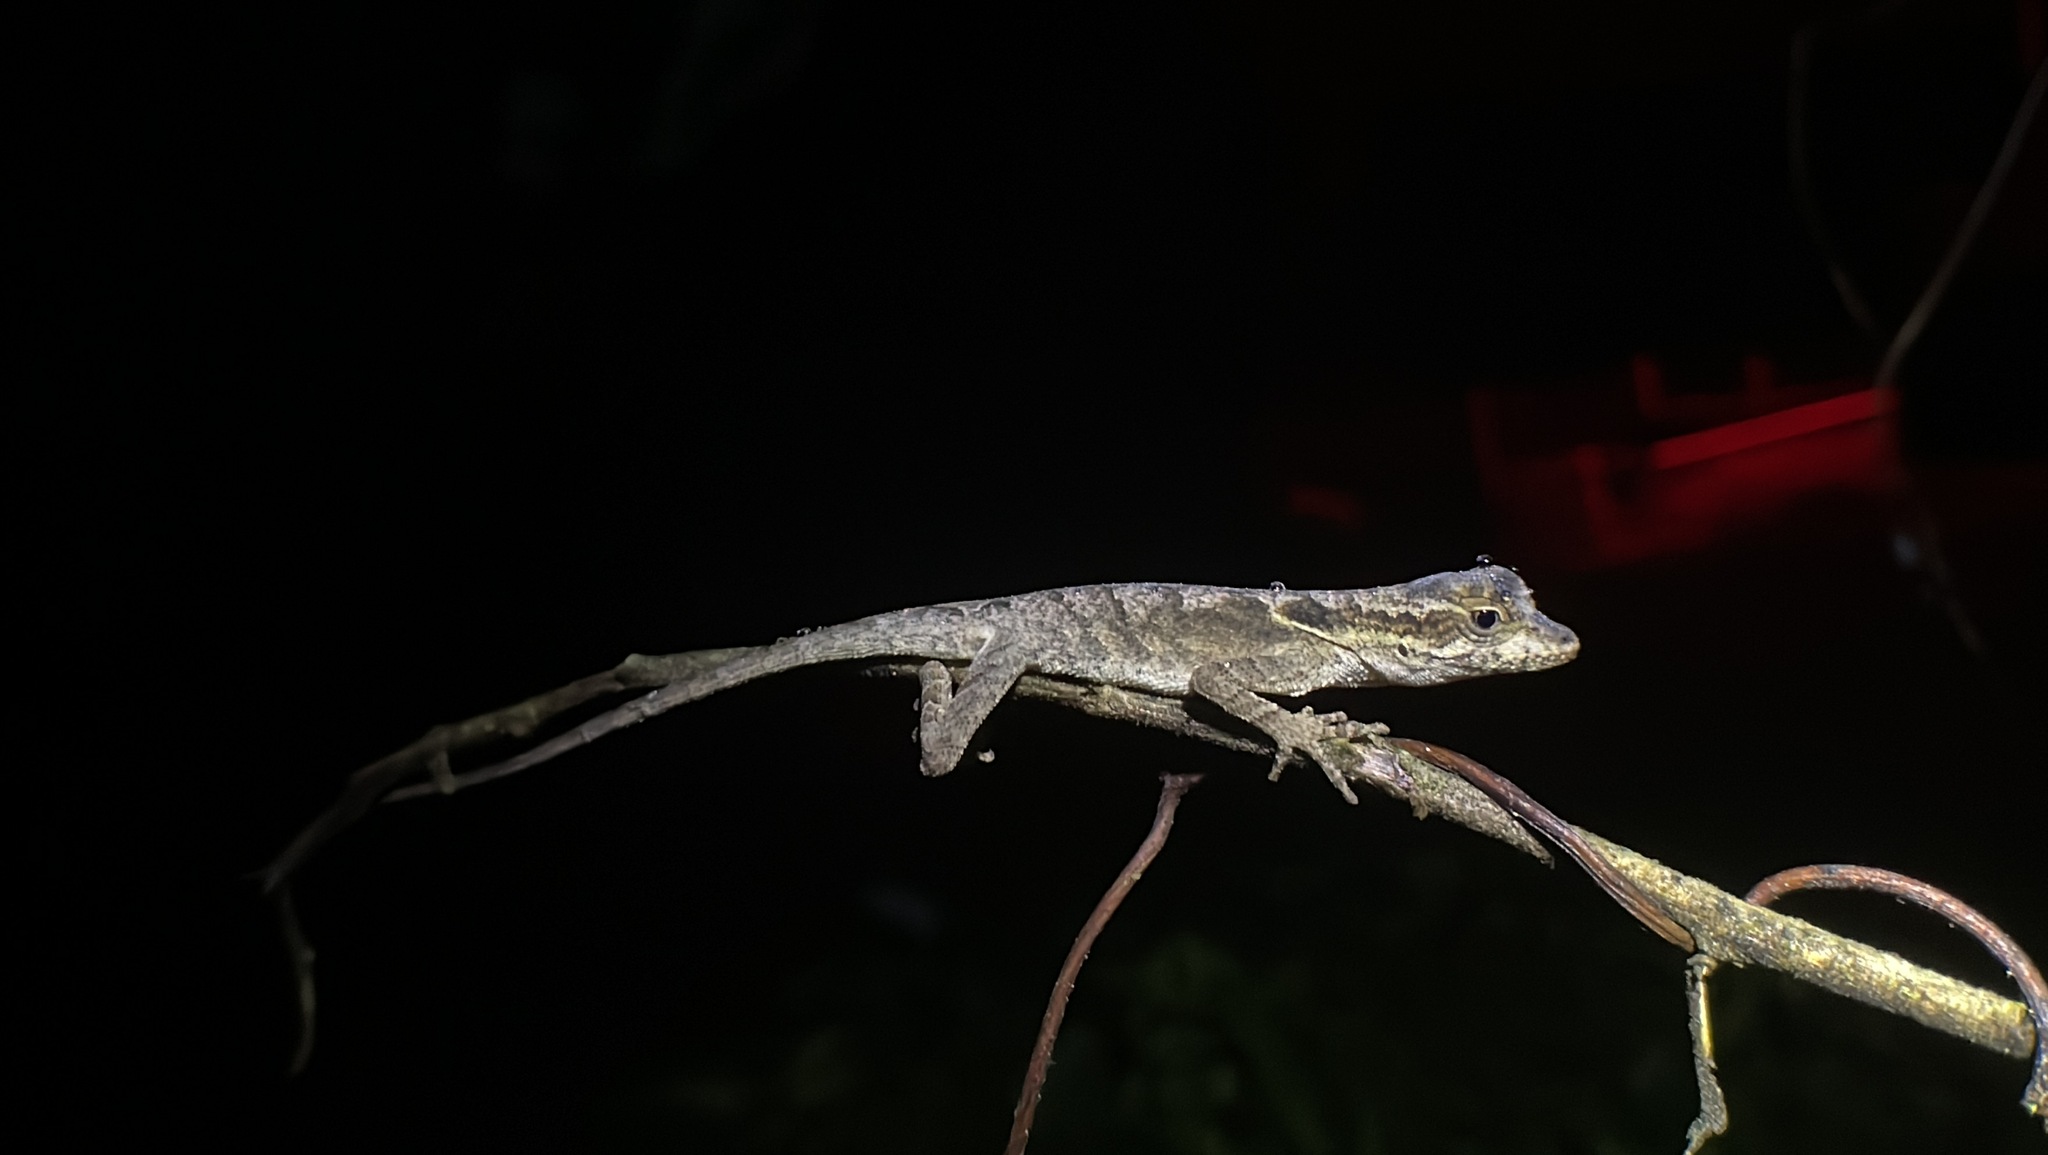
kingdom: Animalia
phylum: Chordata
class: Squamata
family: Dactyloidae
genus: Anolis
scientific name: Anolis planiceps
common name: Goldenscale anole
